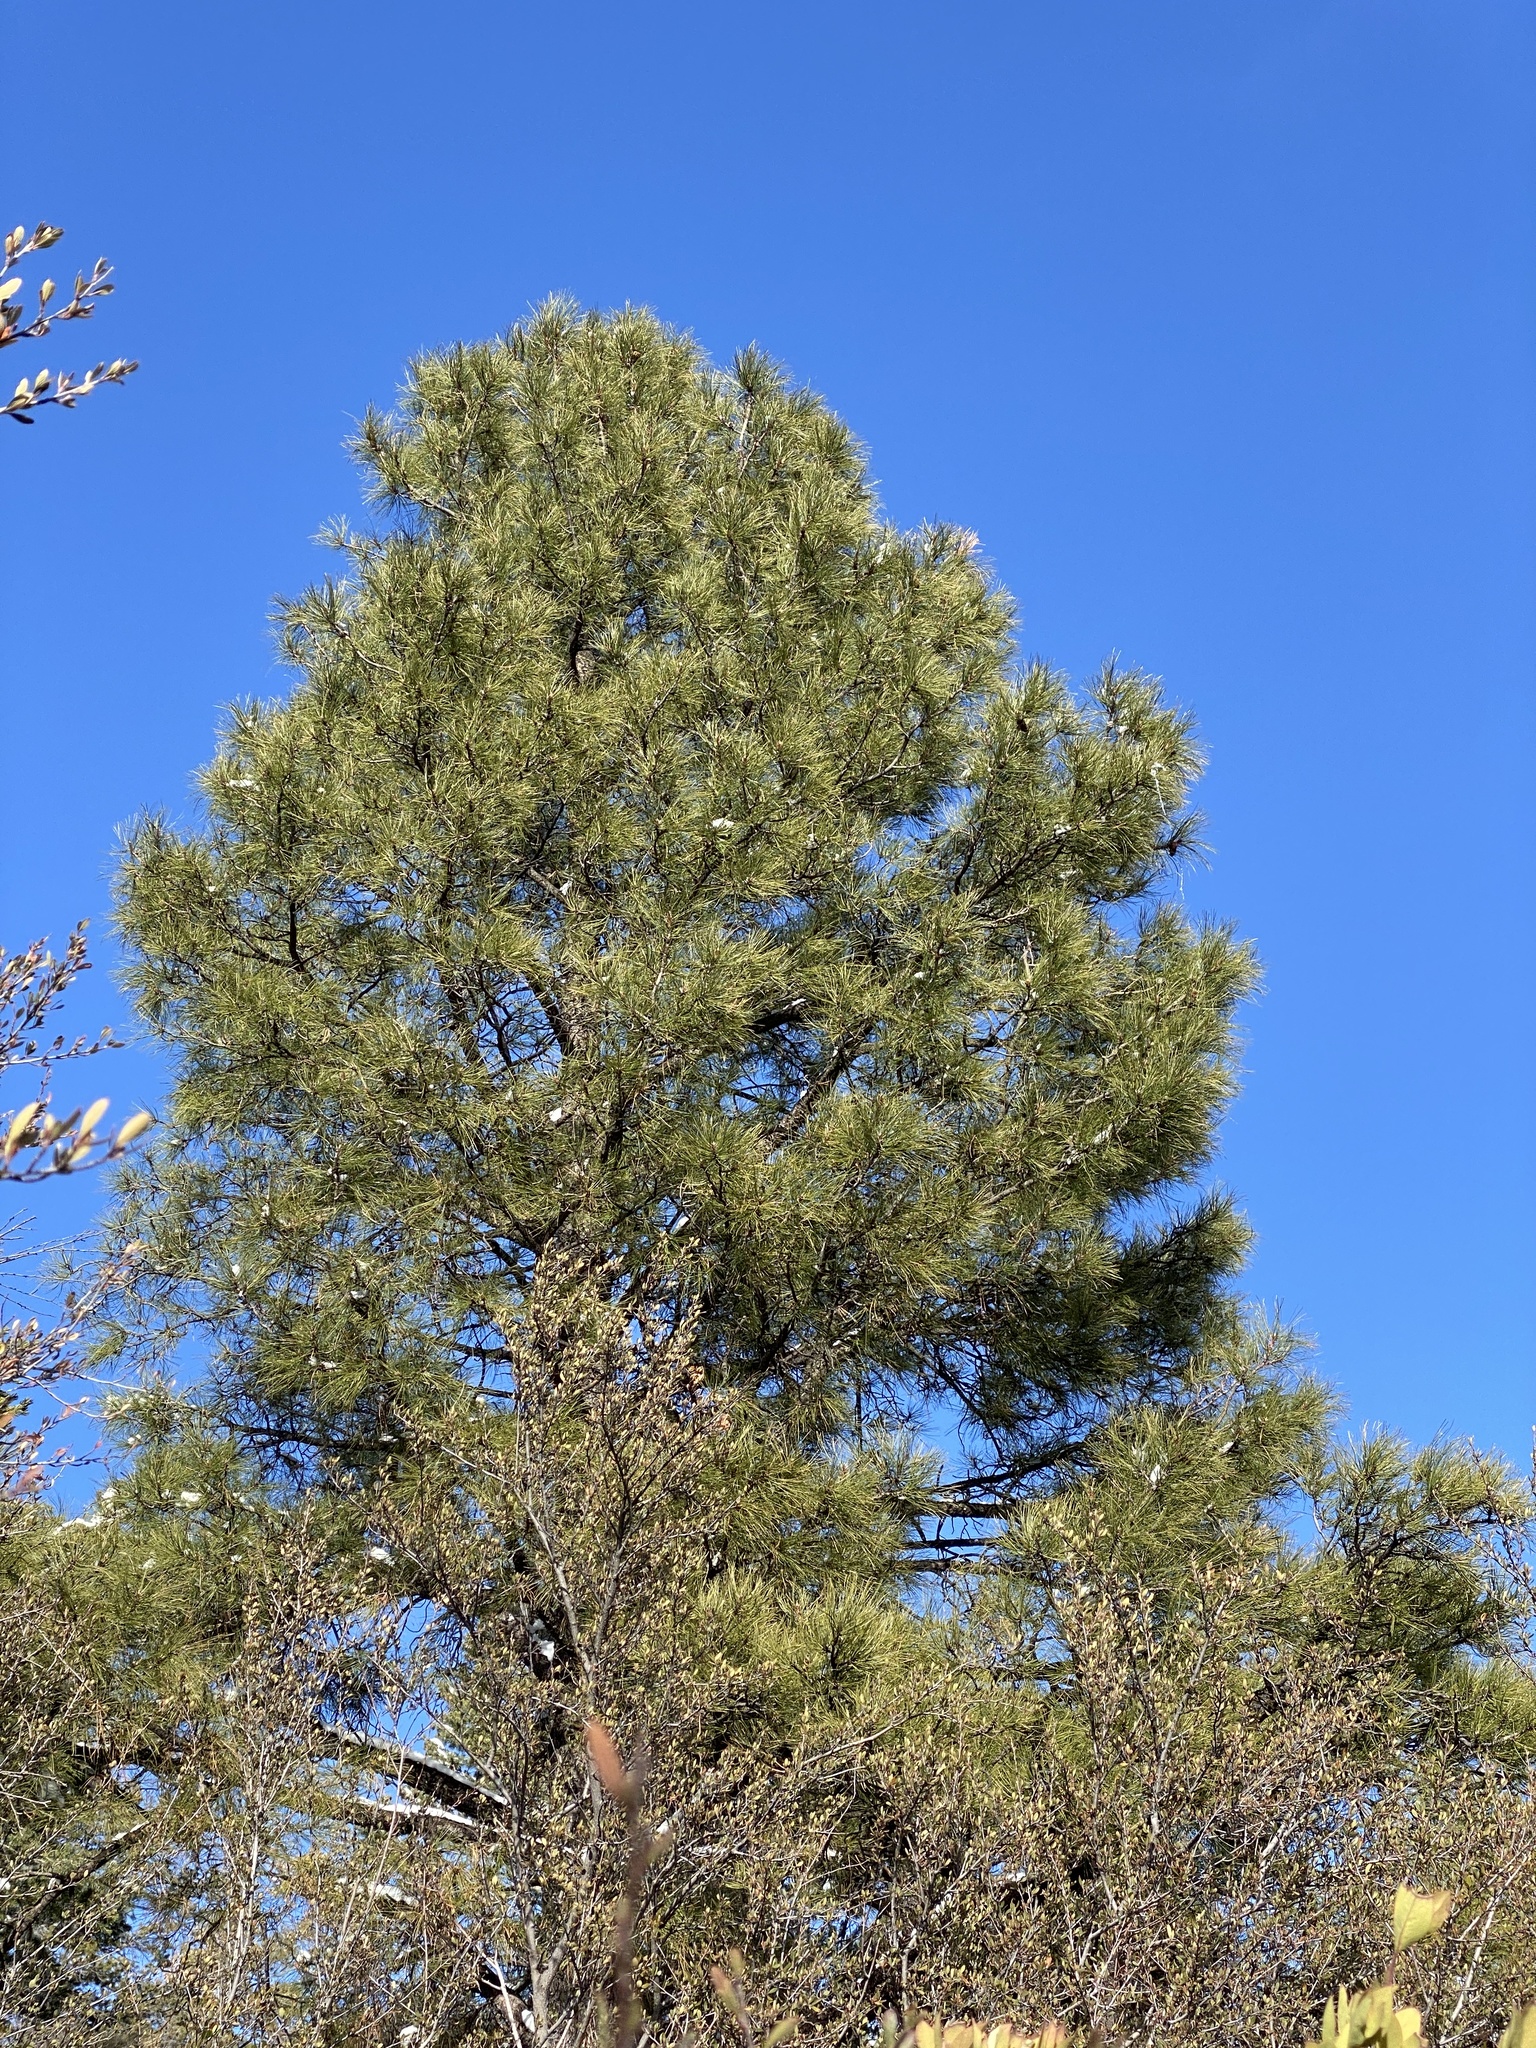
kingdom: Plantae
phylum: Tracheophyta
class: Pinopsida
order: Pinales
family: Pinaceae
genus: Pinus
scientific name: Pinus ponderosa
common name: Western yellow-pine
